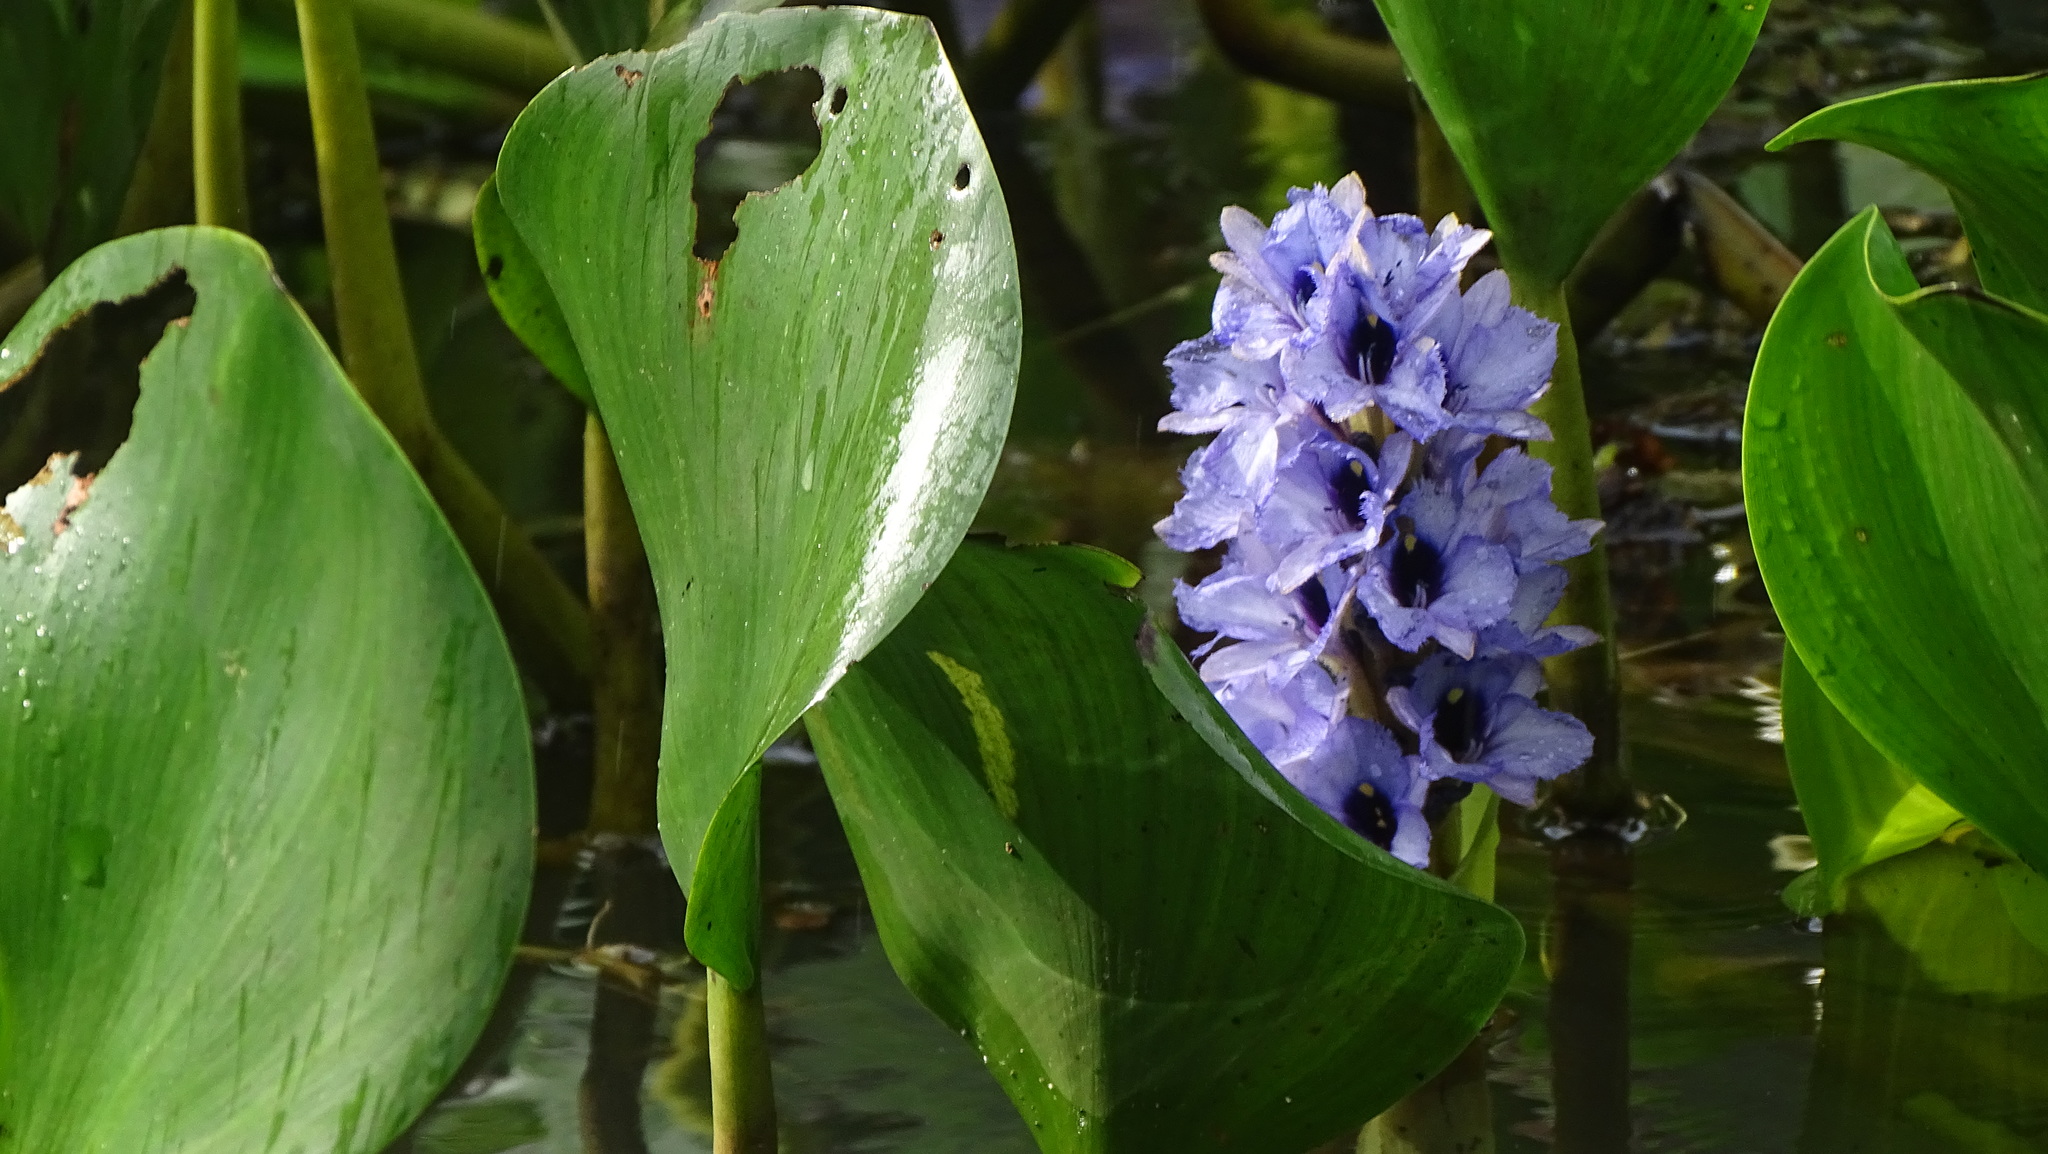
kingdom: Plantae
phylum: Tracheophyta
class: Liliopsida
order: Commelinales
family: Pontederiaceae
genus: Pontederia
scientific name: Pontederia azurea
